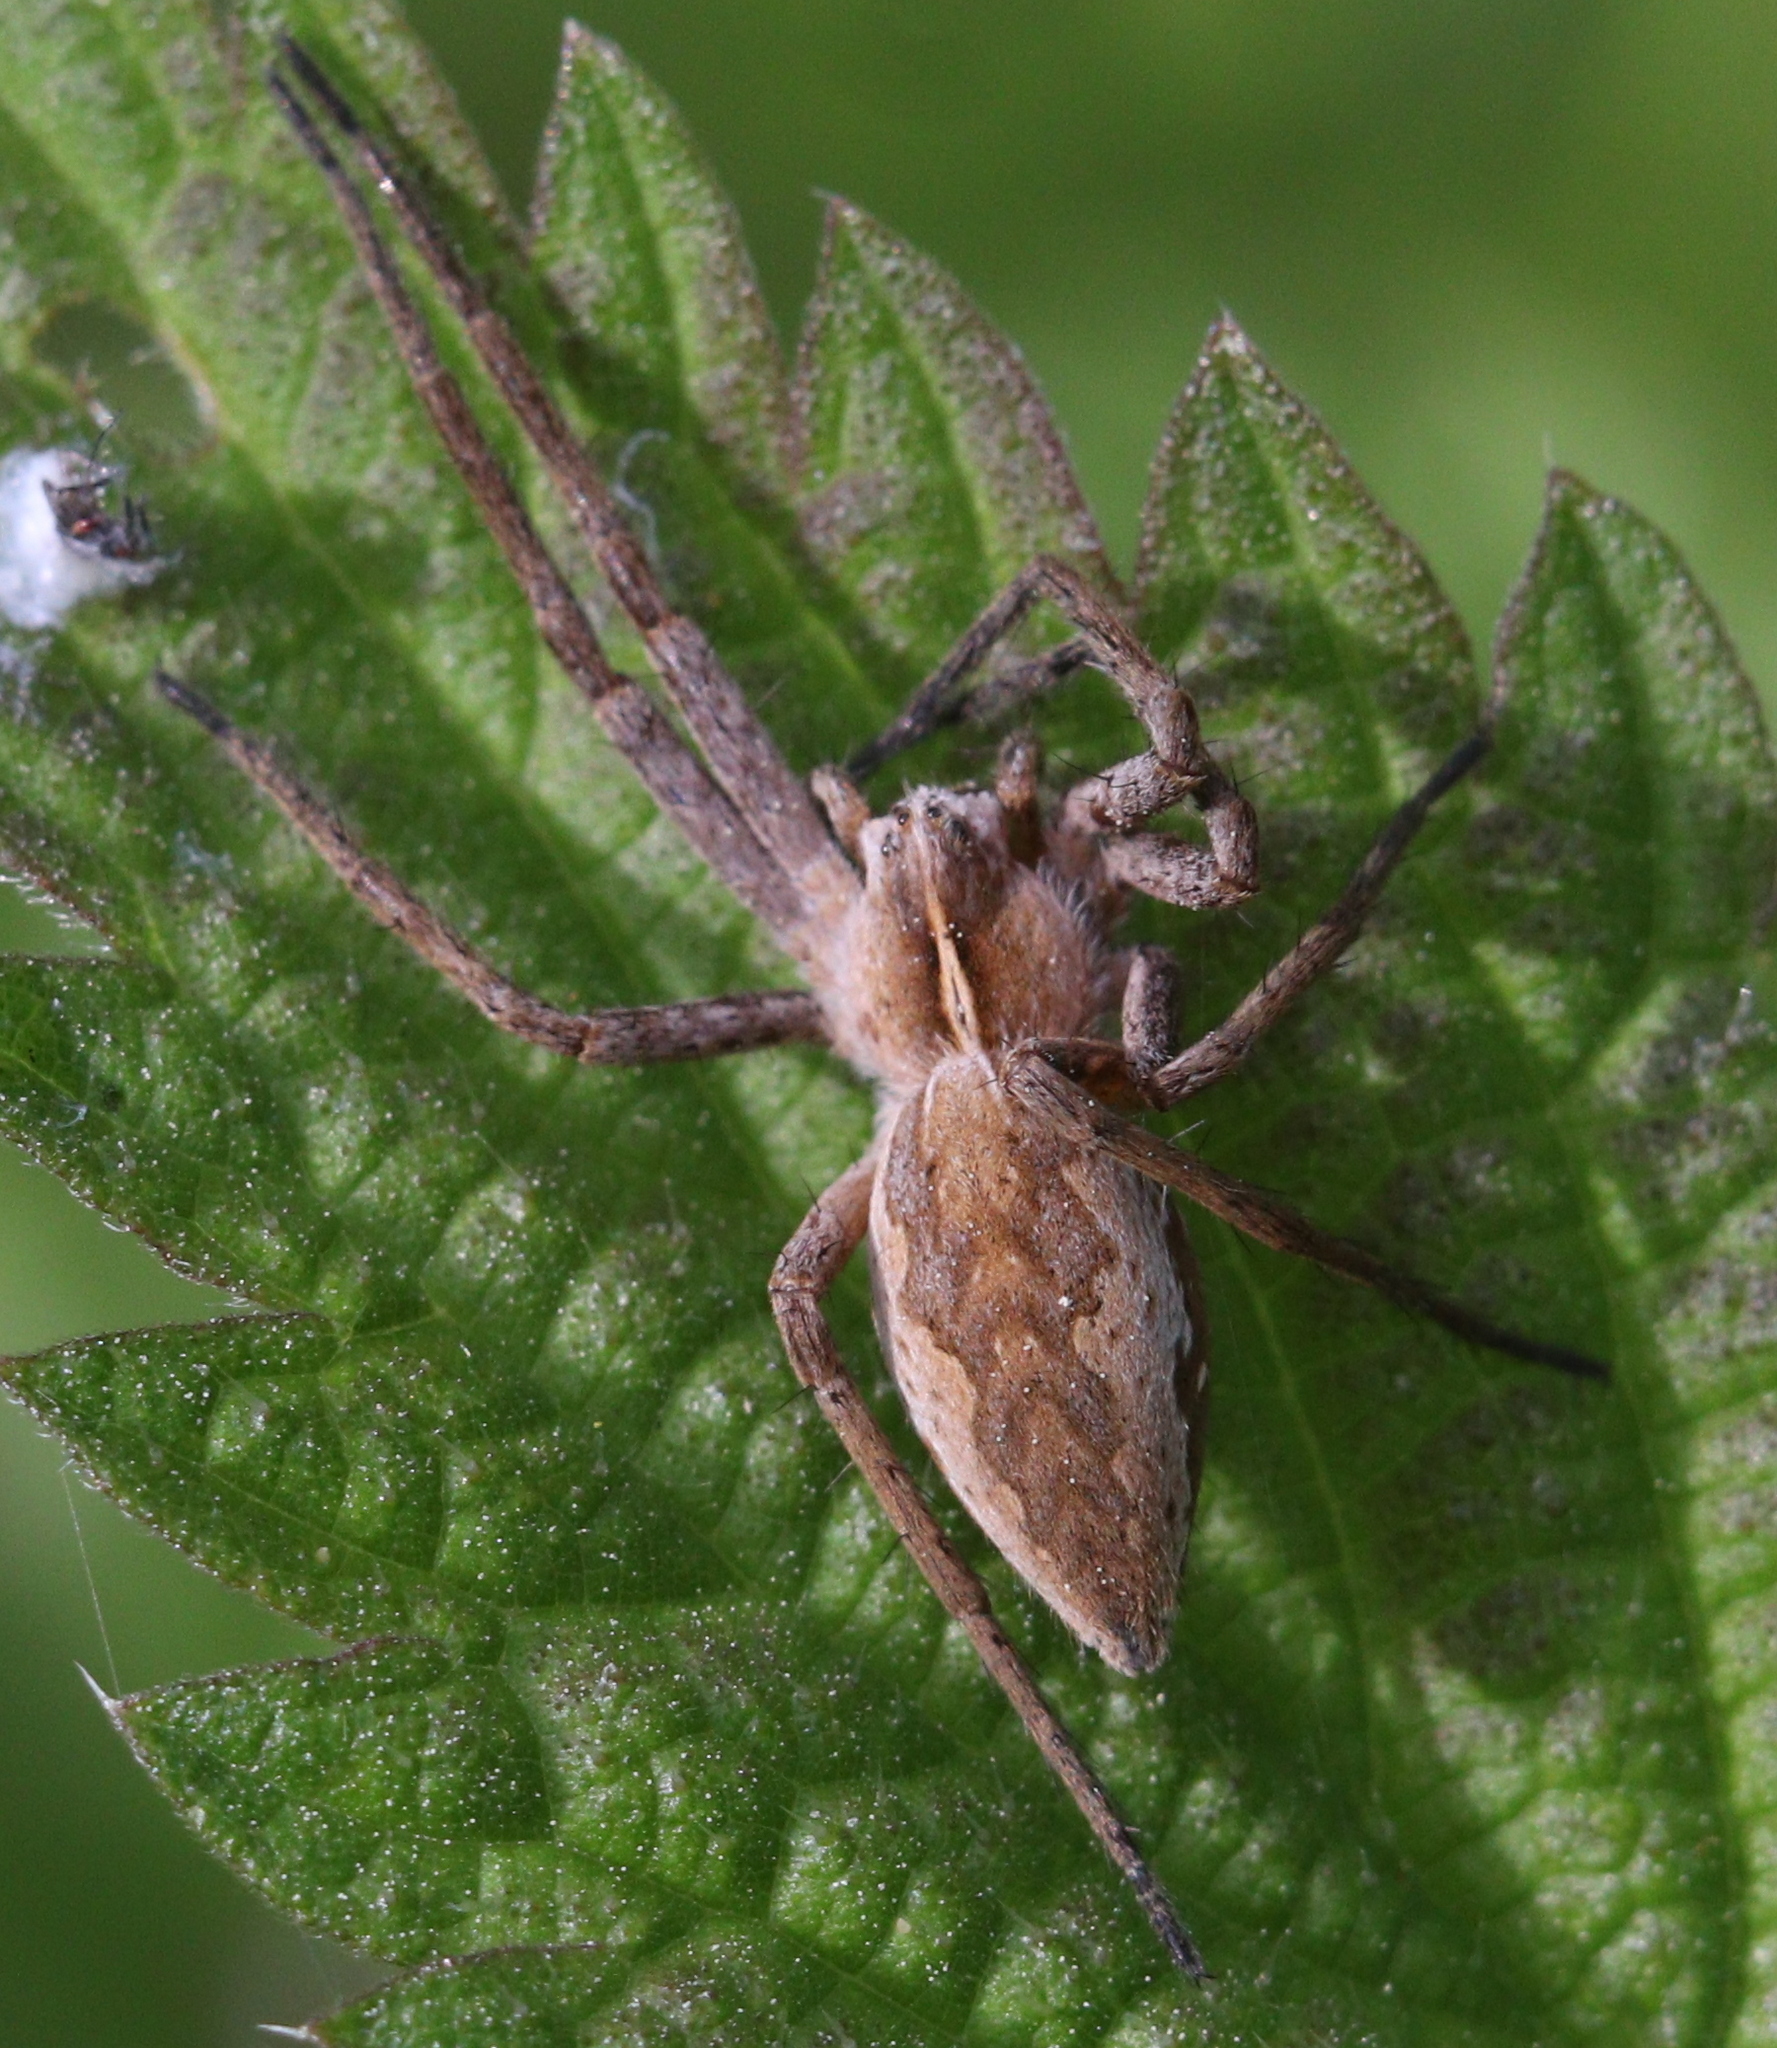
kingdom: Animalia
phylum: Arthropoda
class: Arachnida
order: Araneae
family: Pisauridae
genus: Pisaura
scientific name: Pisaura mirabilis
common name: Tent spider
